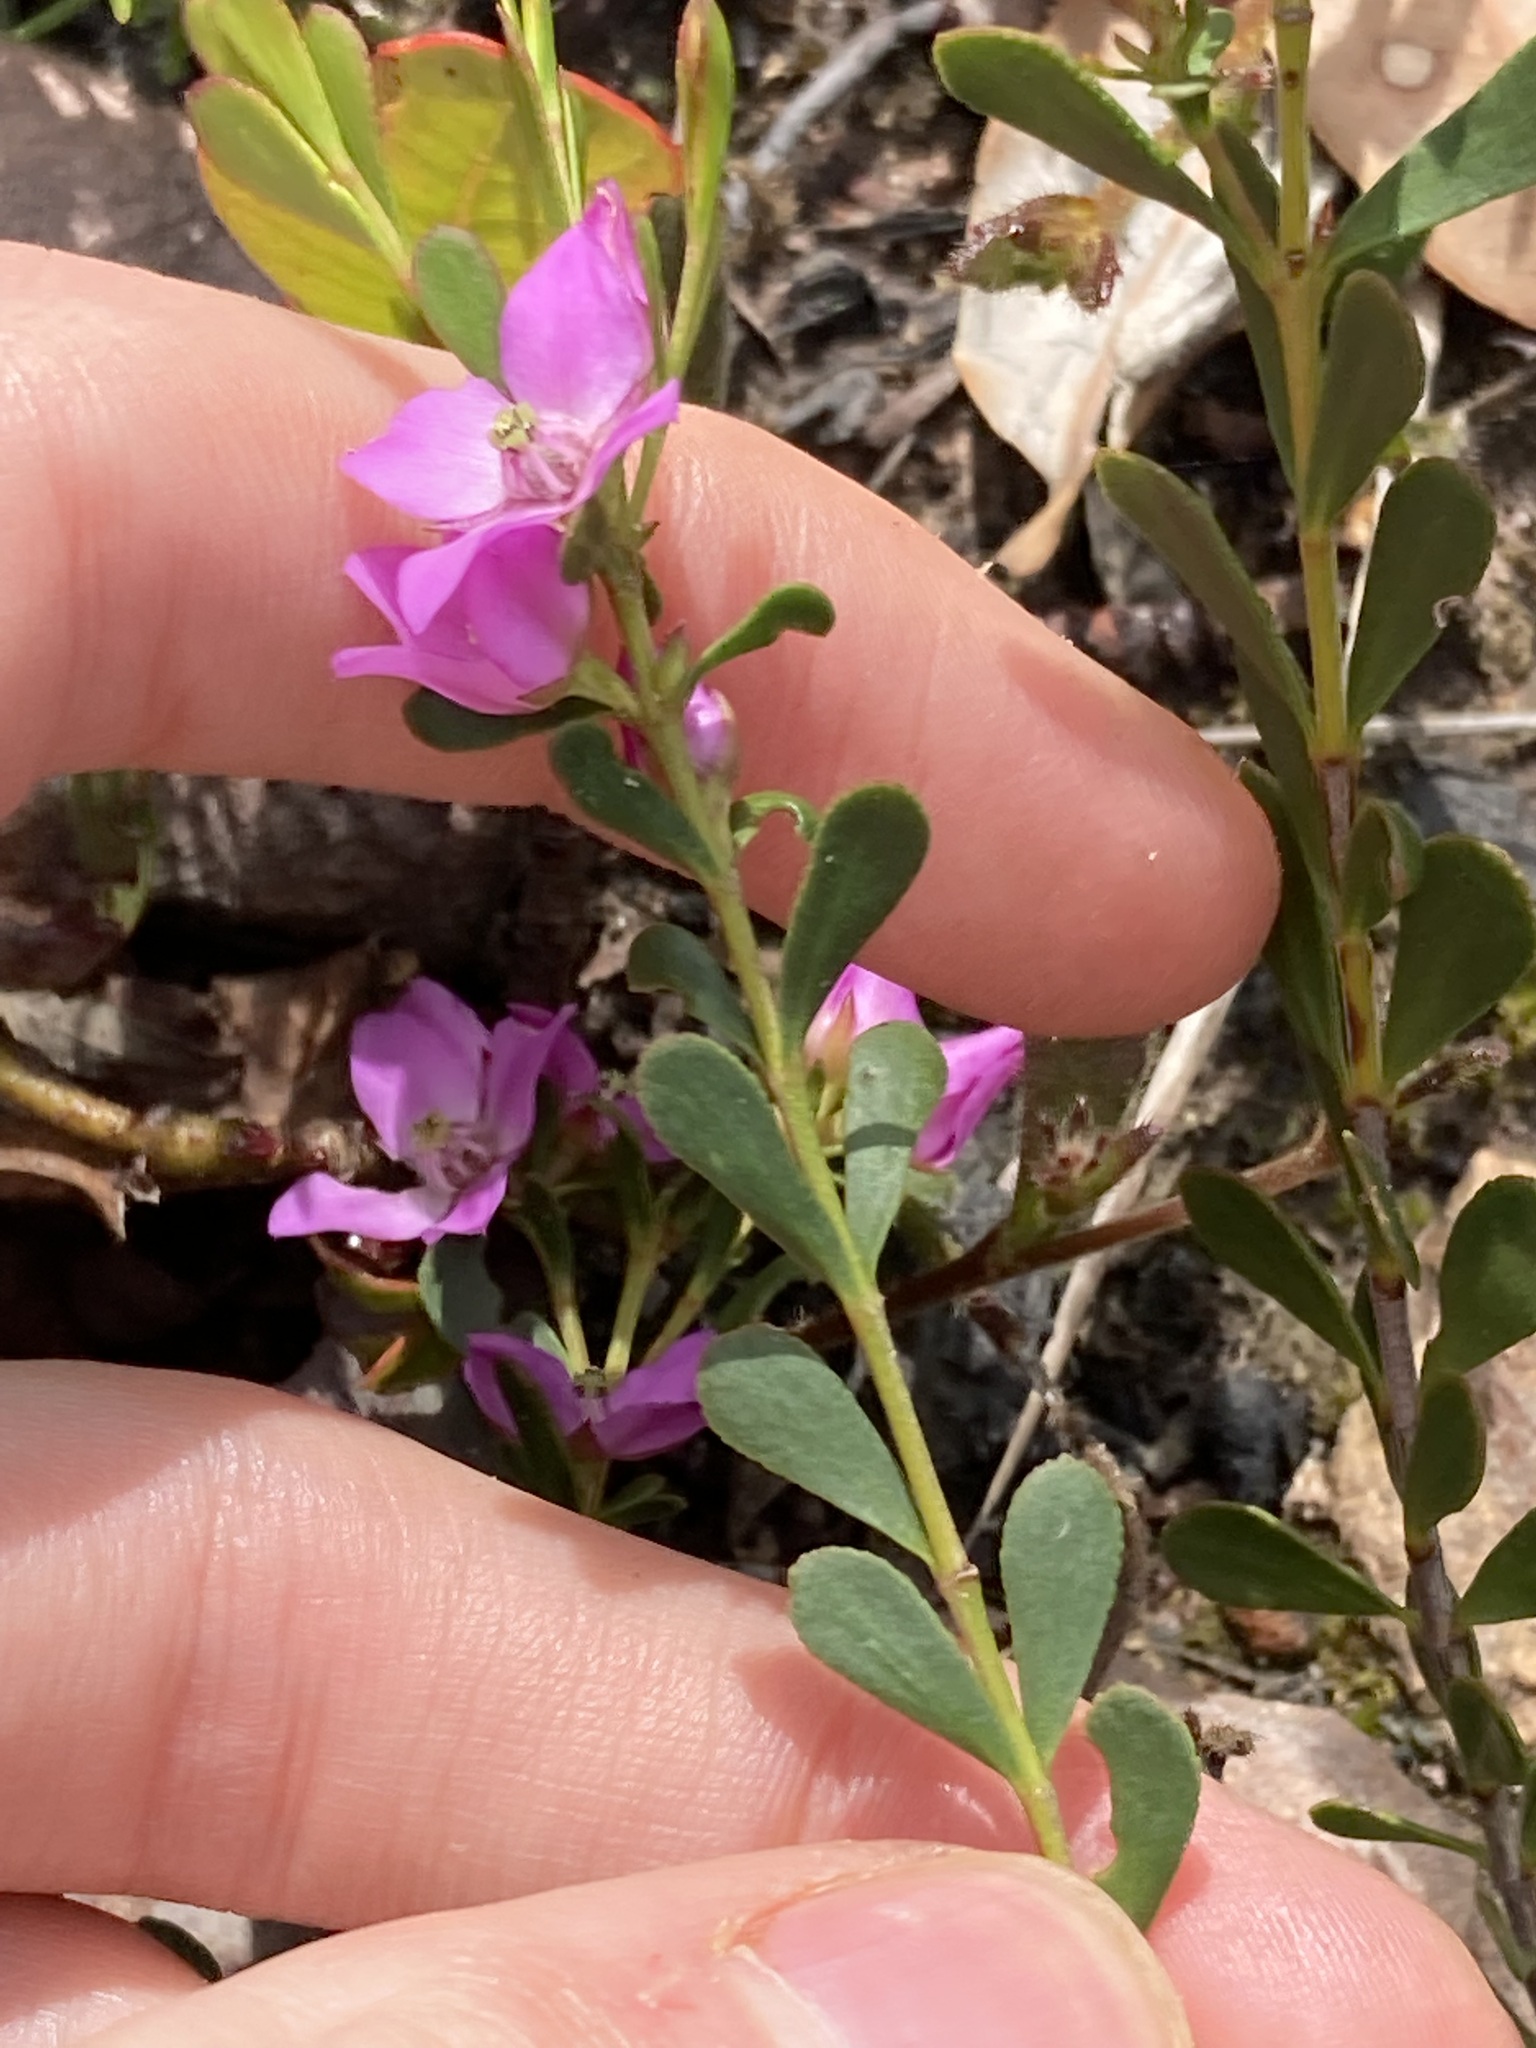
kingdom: Plantae
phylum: Tracheophyta
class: Magnoliopsida
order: Sapindales
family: Rutaceae
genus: Boronia
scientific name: Boronia crenulata
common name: Aniseed boronia
